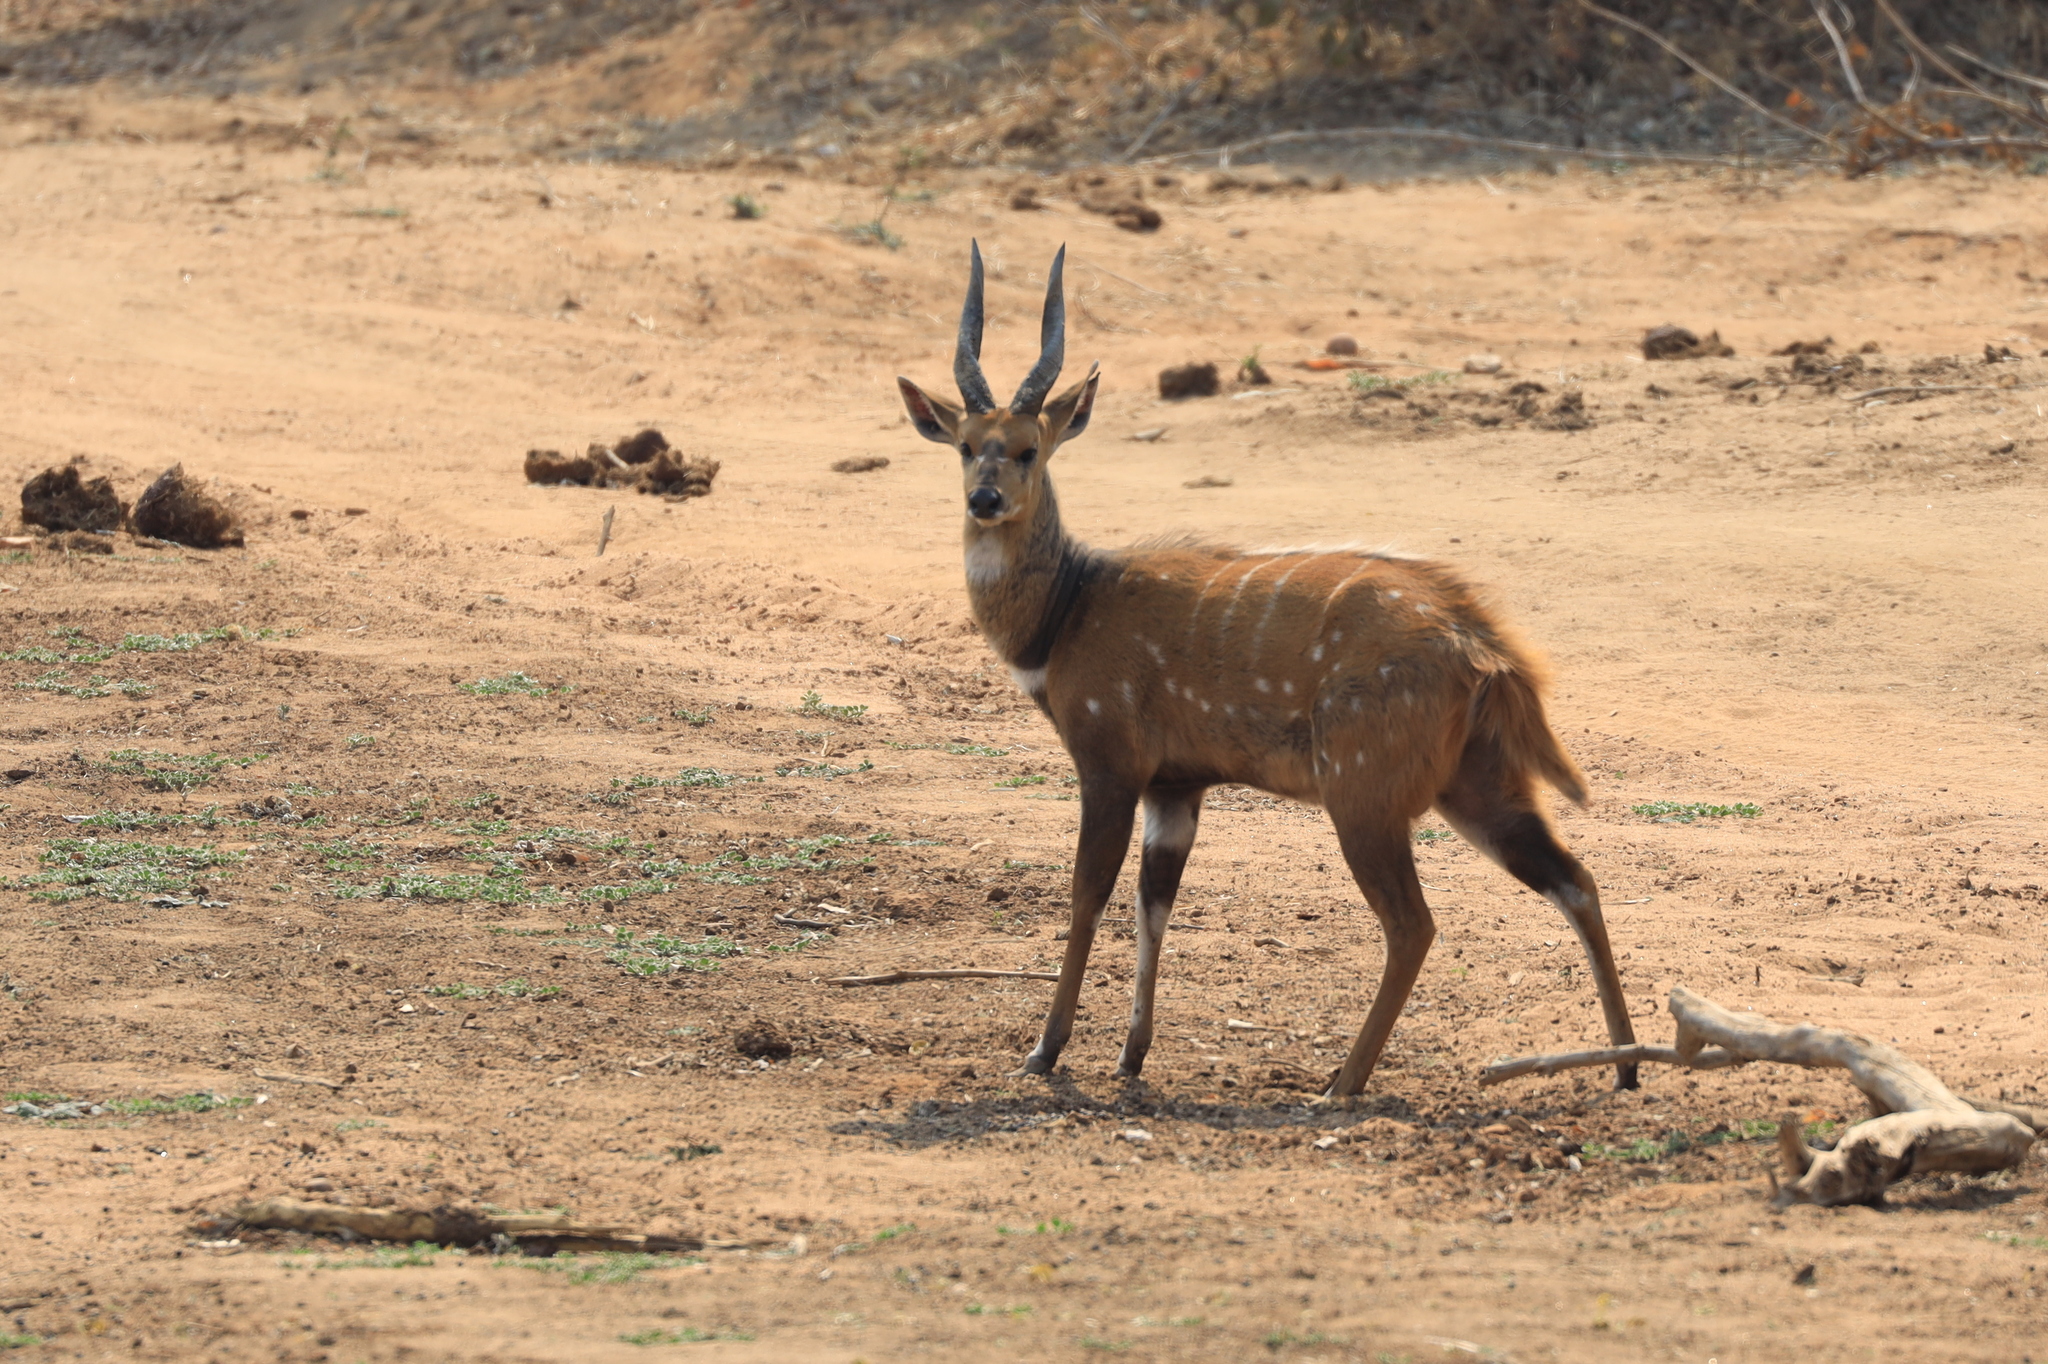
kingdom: Animalia
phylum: Chordata
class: Mammalia
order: Artiodactyla
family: Bovidae
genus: Tragelaphus
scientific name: Tragelaphus scriptus
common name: Bushbuck
